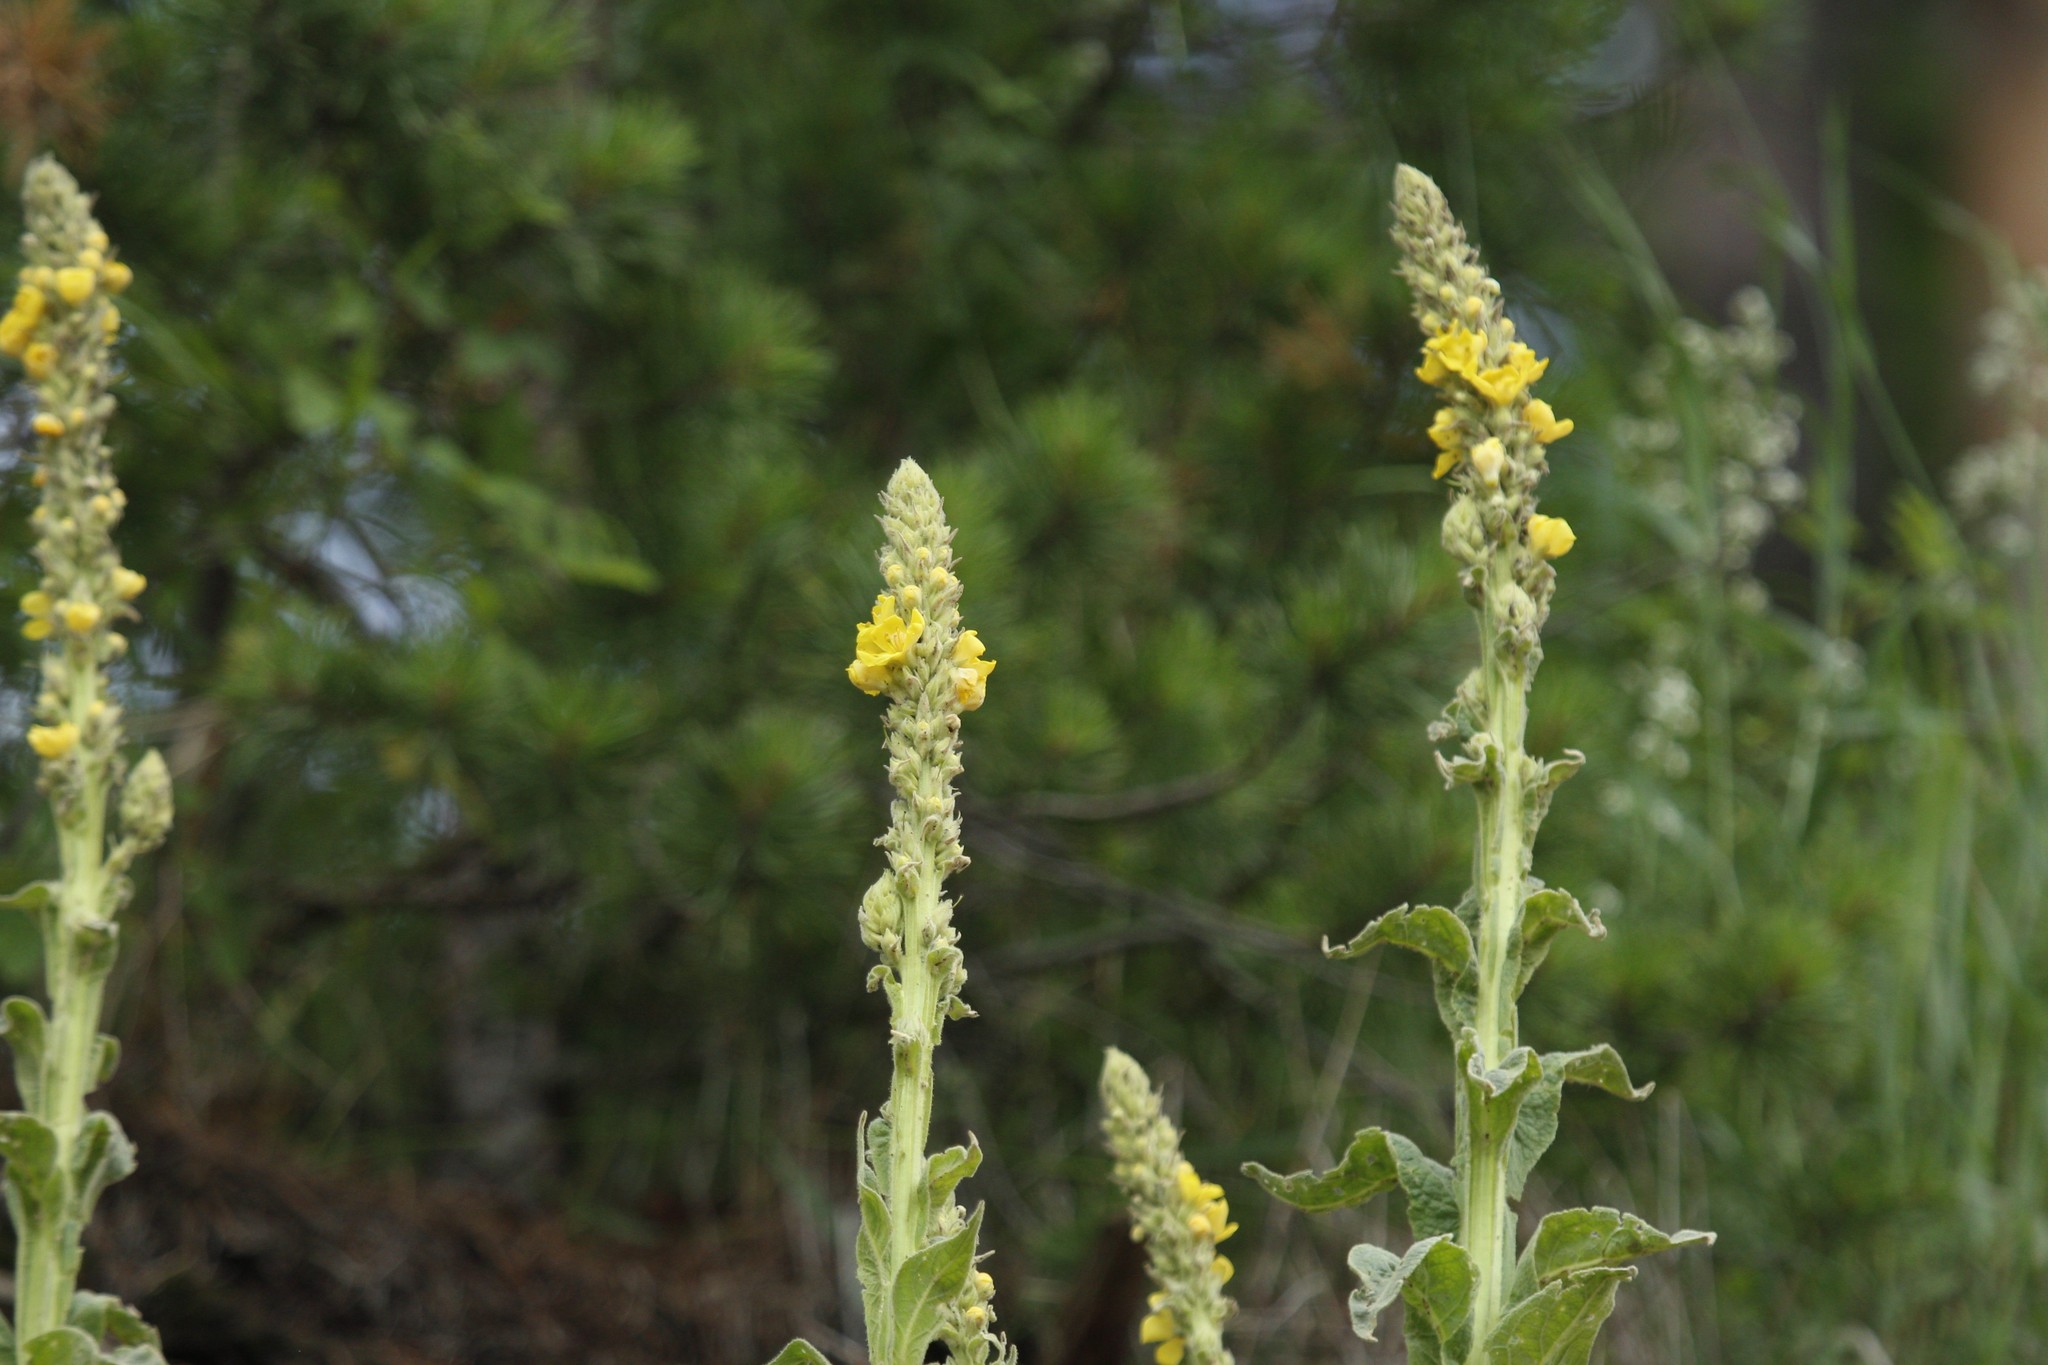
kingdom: Plantae
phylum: Tracheophyta
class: Magnoliopsida
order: Lamiales
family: Scrophulariaceae
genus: Verbascum
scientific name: Verbascum thapsus
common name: Common mullein
